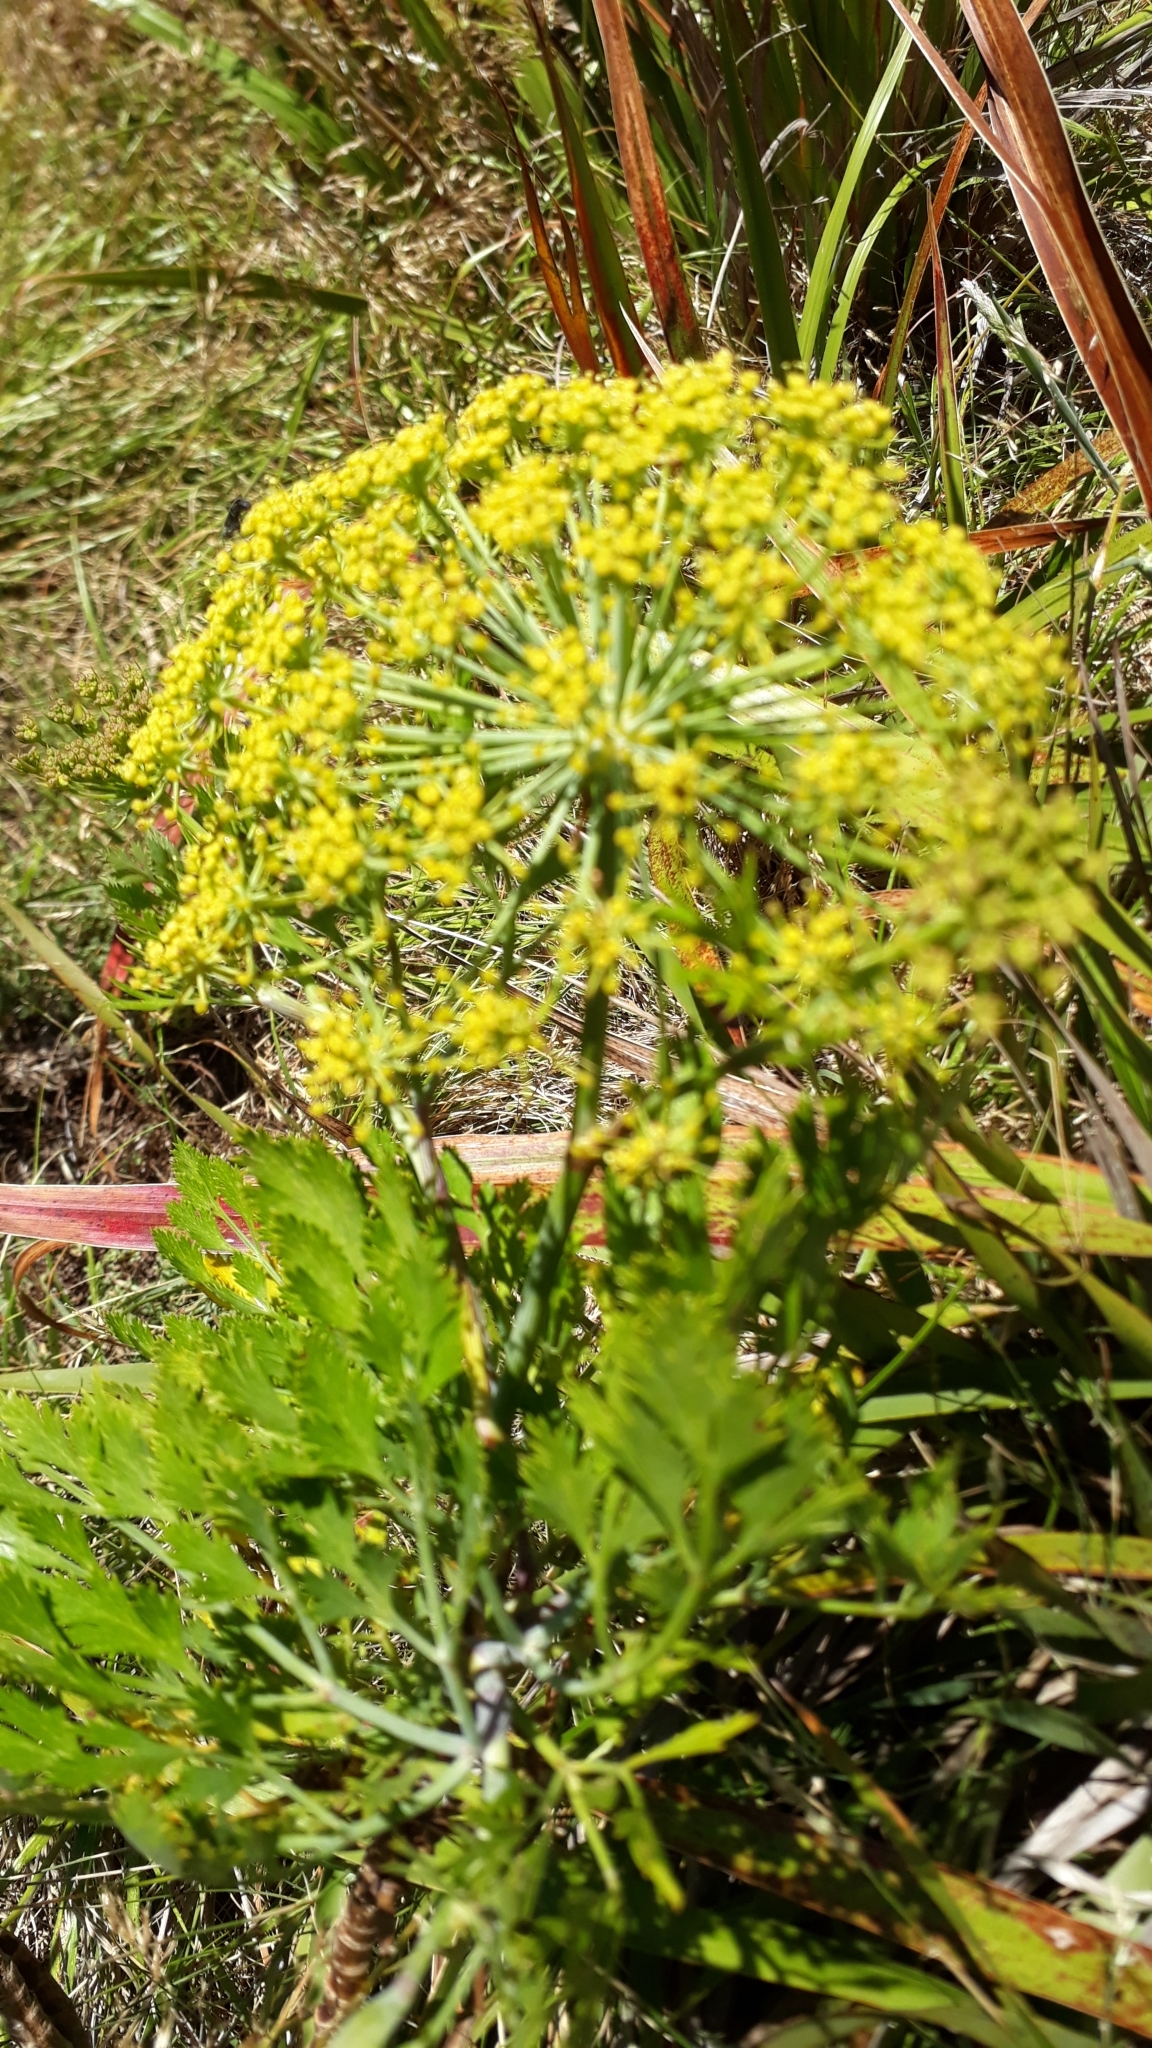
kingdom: Plantae
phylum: Tracheophyta
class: Magnoliopsida
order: Apiales
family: Apiaceae
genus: Notobubon
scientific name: Notobubon galbanum
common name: Blisterbush
